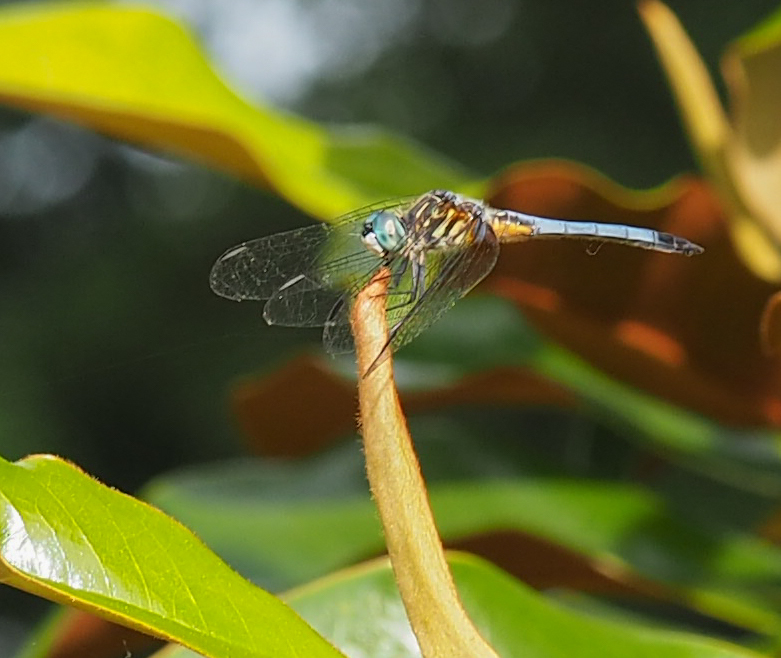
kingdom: Animalia
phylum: Arthropoda
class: Insecta
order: Odonata
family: Libellulidae
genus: Pachydiplax
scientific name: Pachydiplax longipennis
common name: Blue dasher
